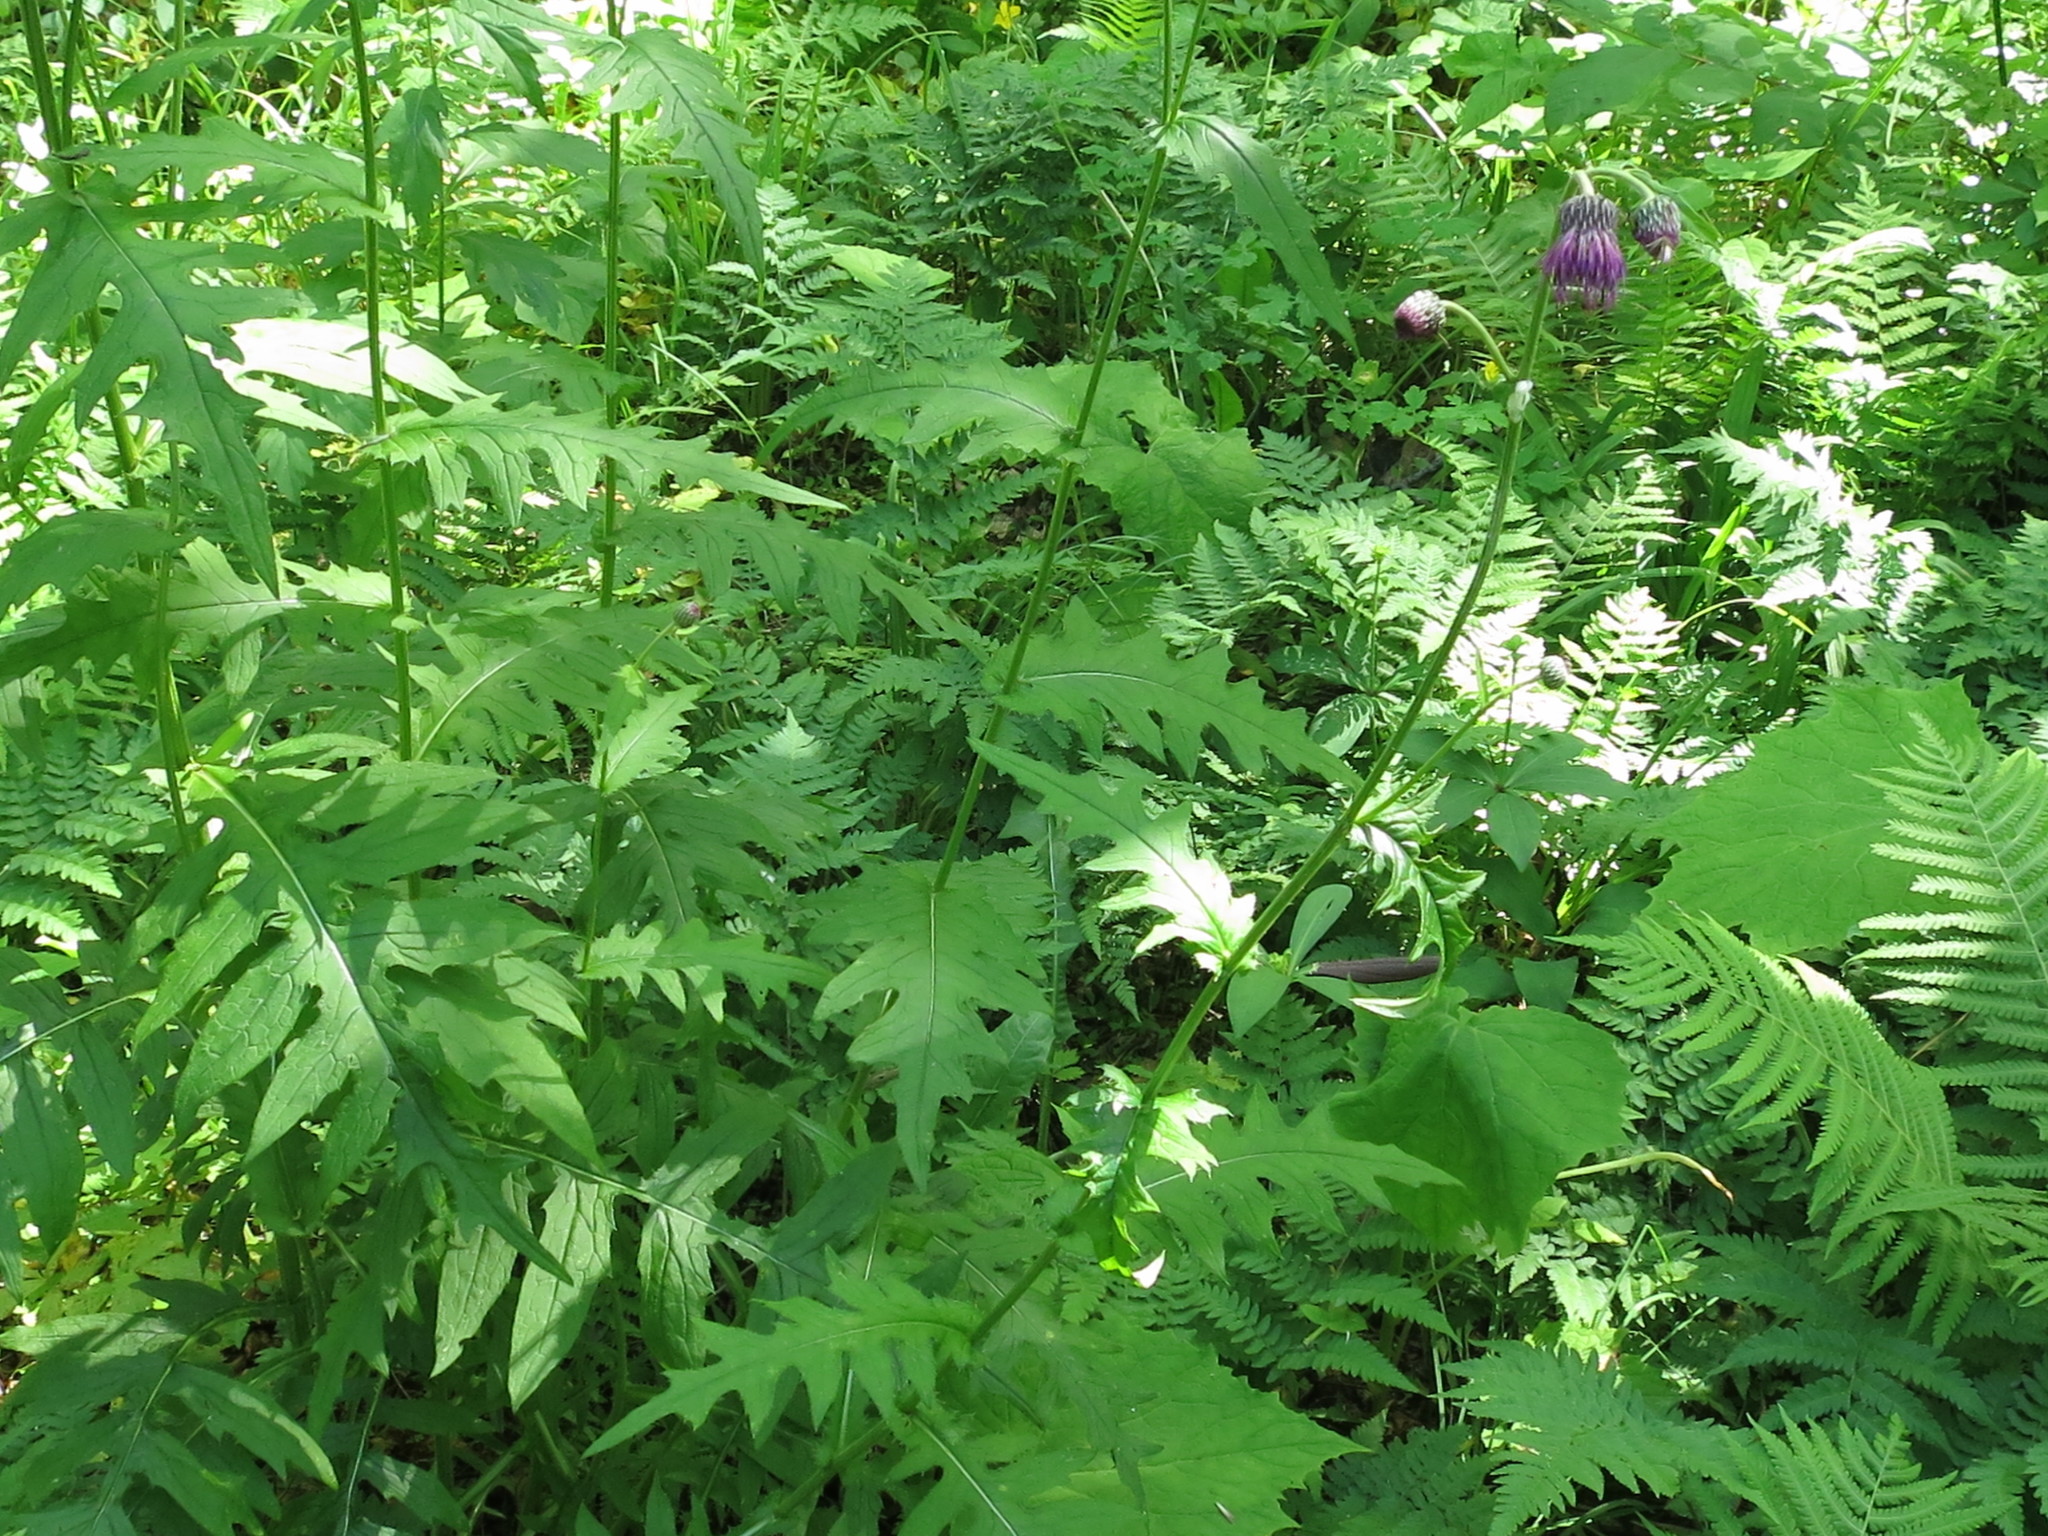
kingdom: Plantae
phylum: Tracheophyta
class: Magnoliopsida
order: Asterales
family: Asteraceae
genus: Cirsium
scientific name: Cirsium schantarense
